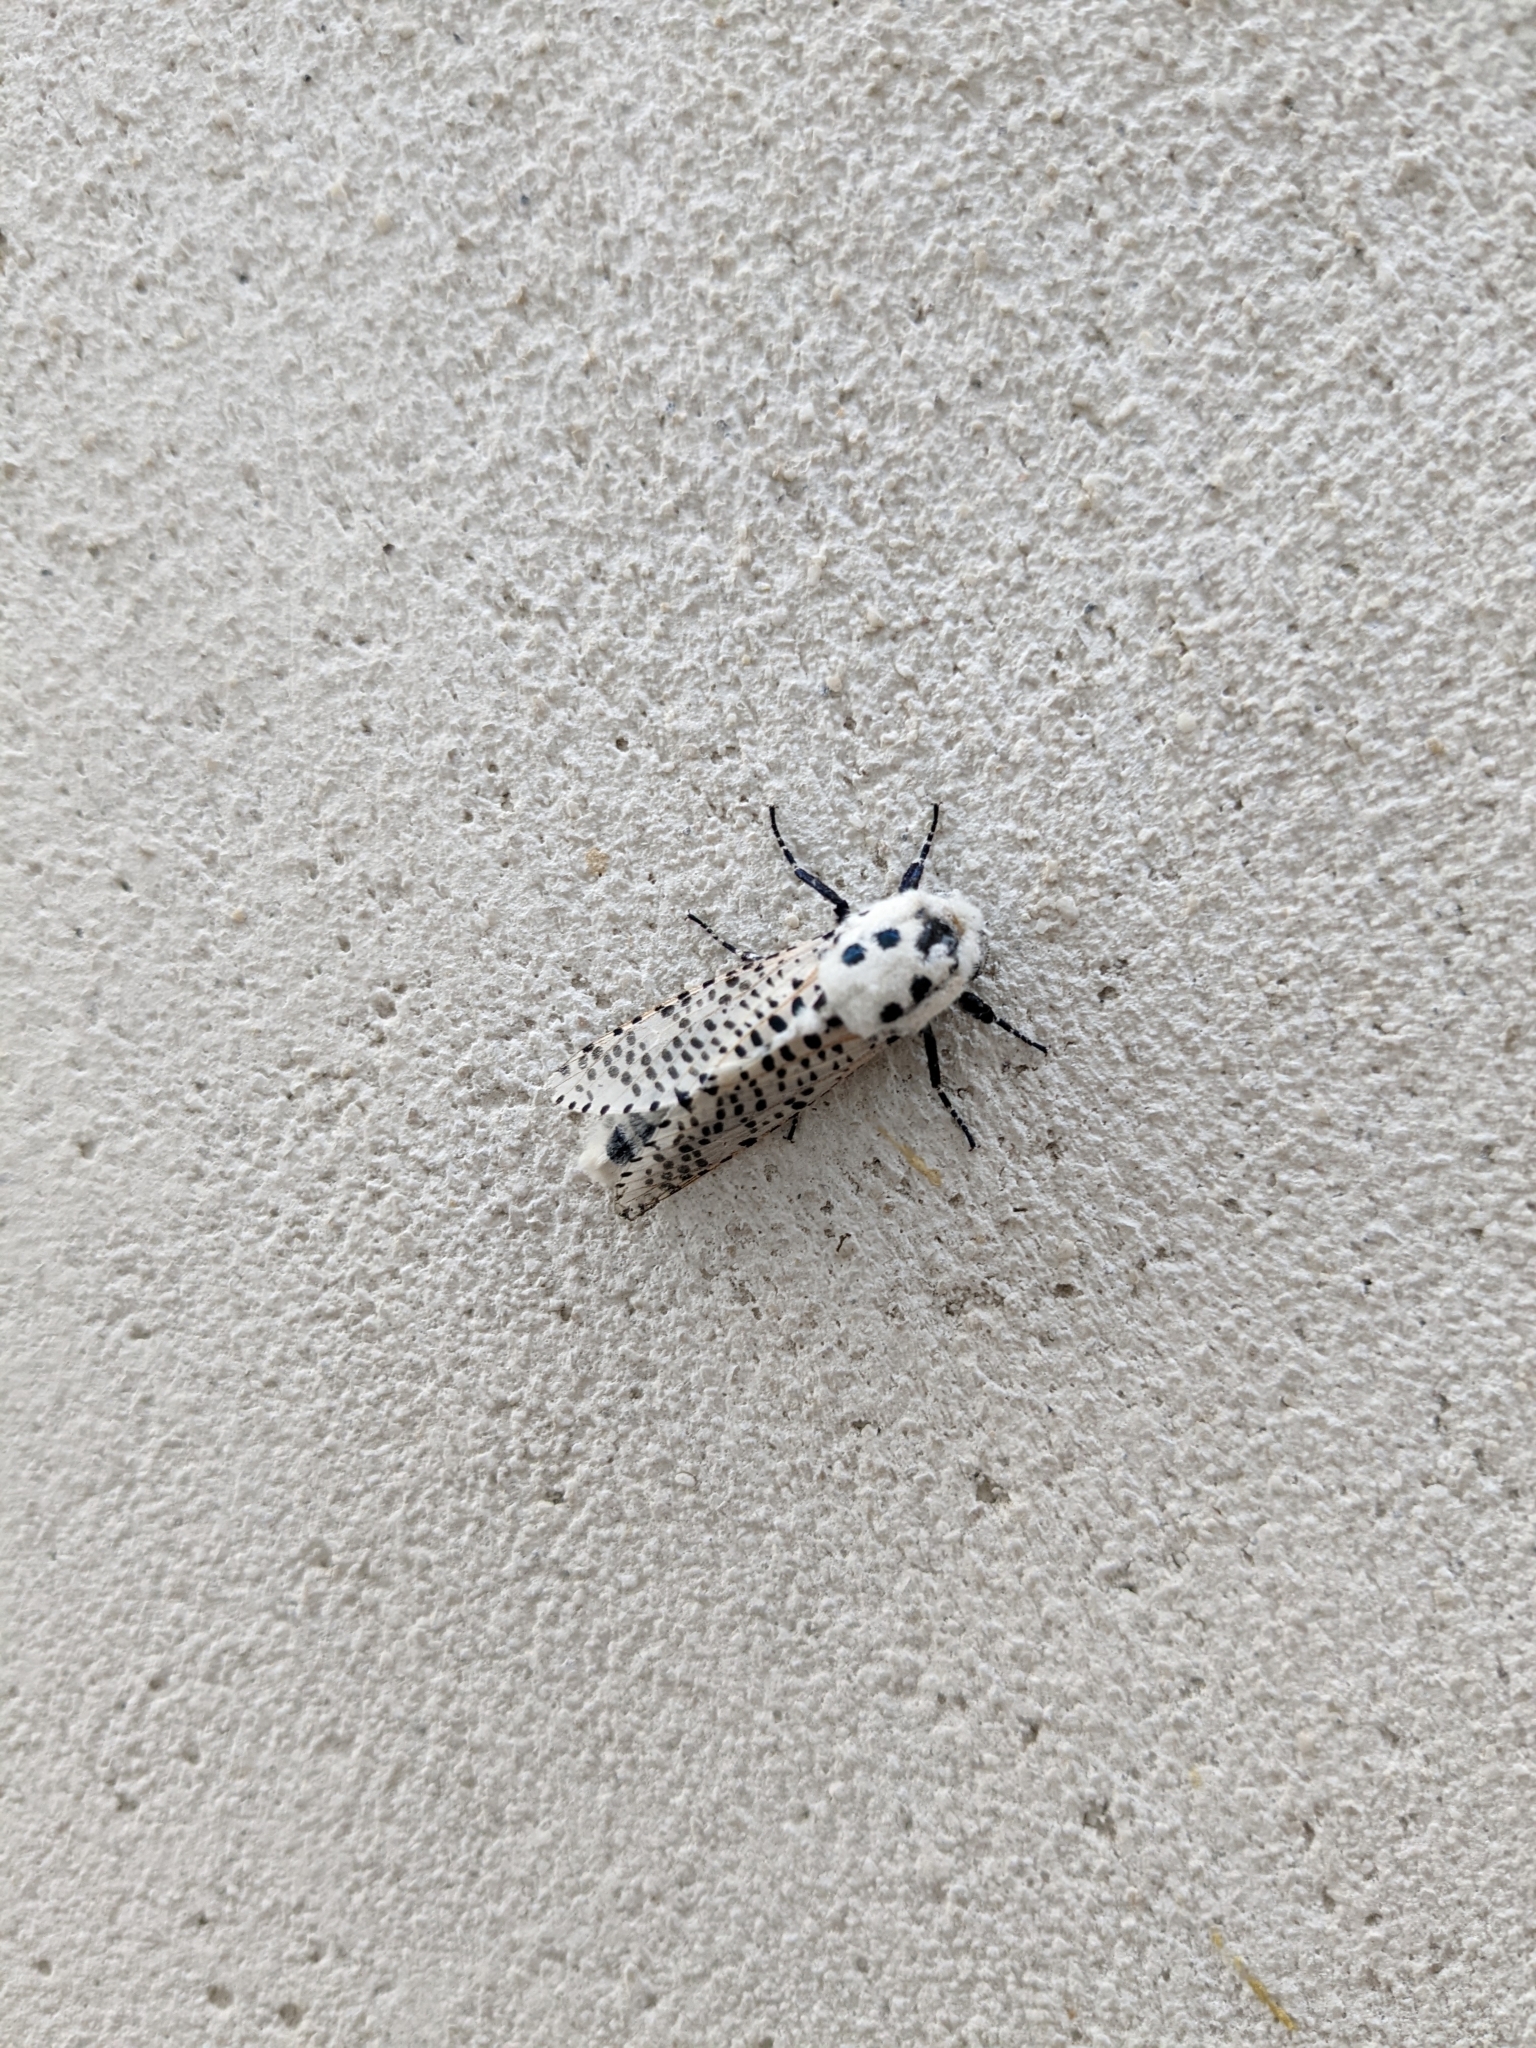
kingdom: Animalia
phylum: Arthropoda
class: Insecta
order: Lepidoptera
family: Cossidae
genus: Zeuzera
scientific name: Zeuzera pyrina
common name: Leopard moth
